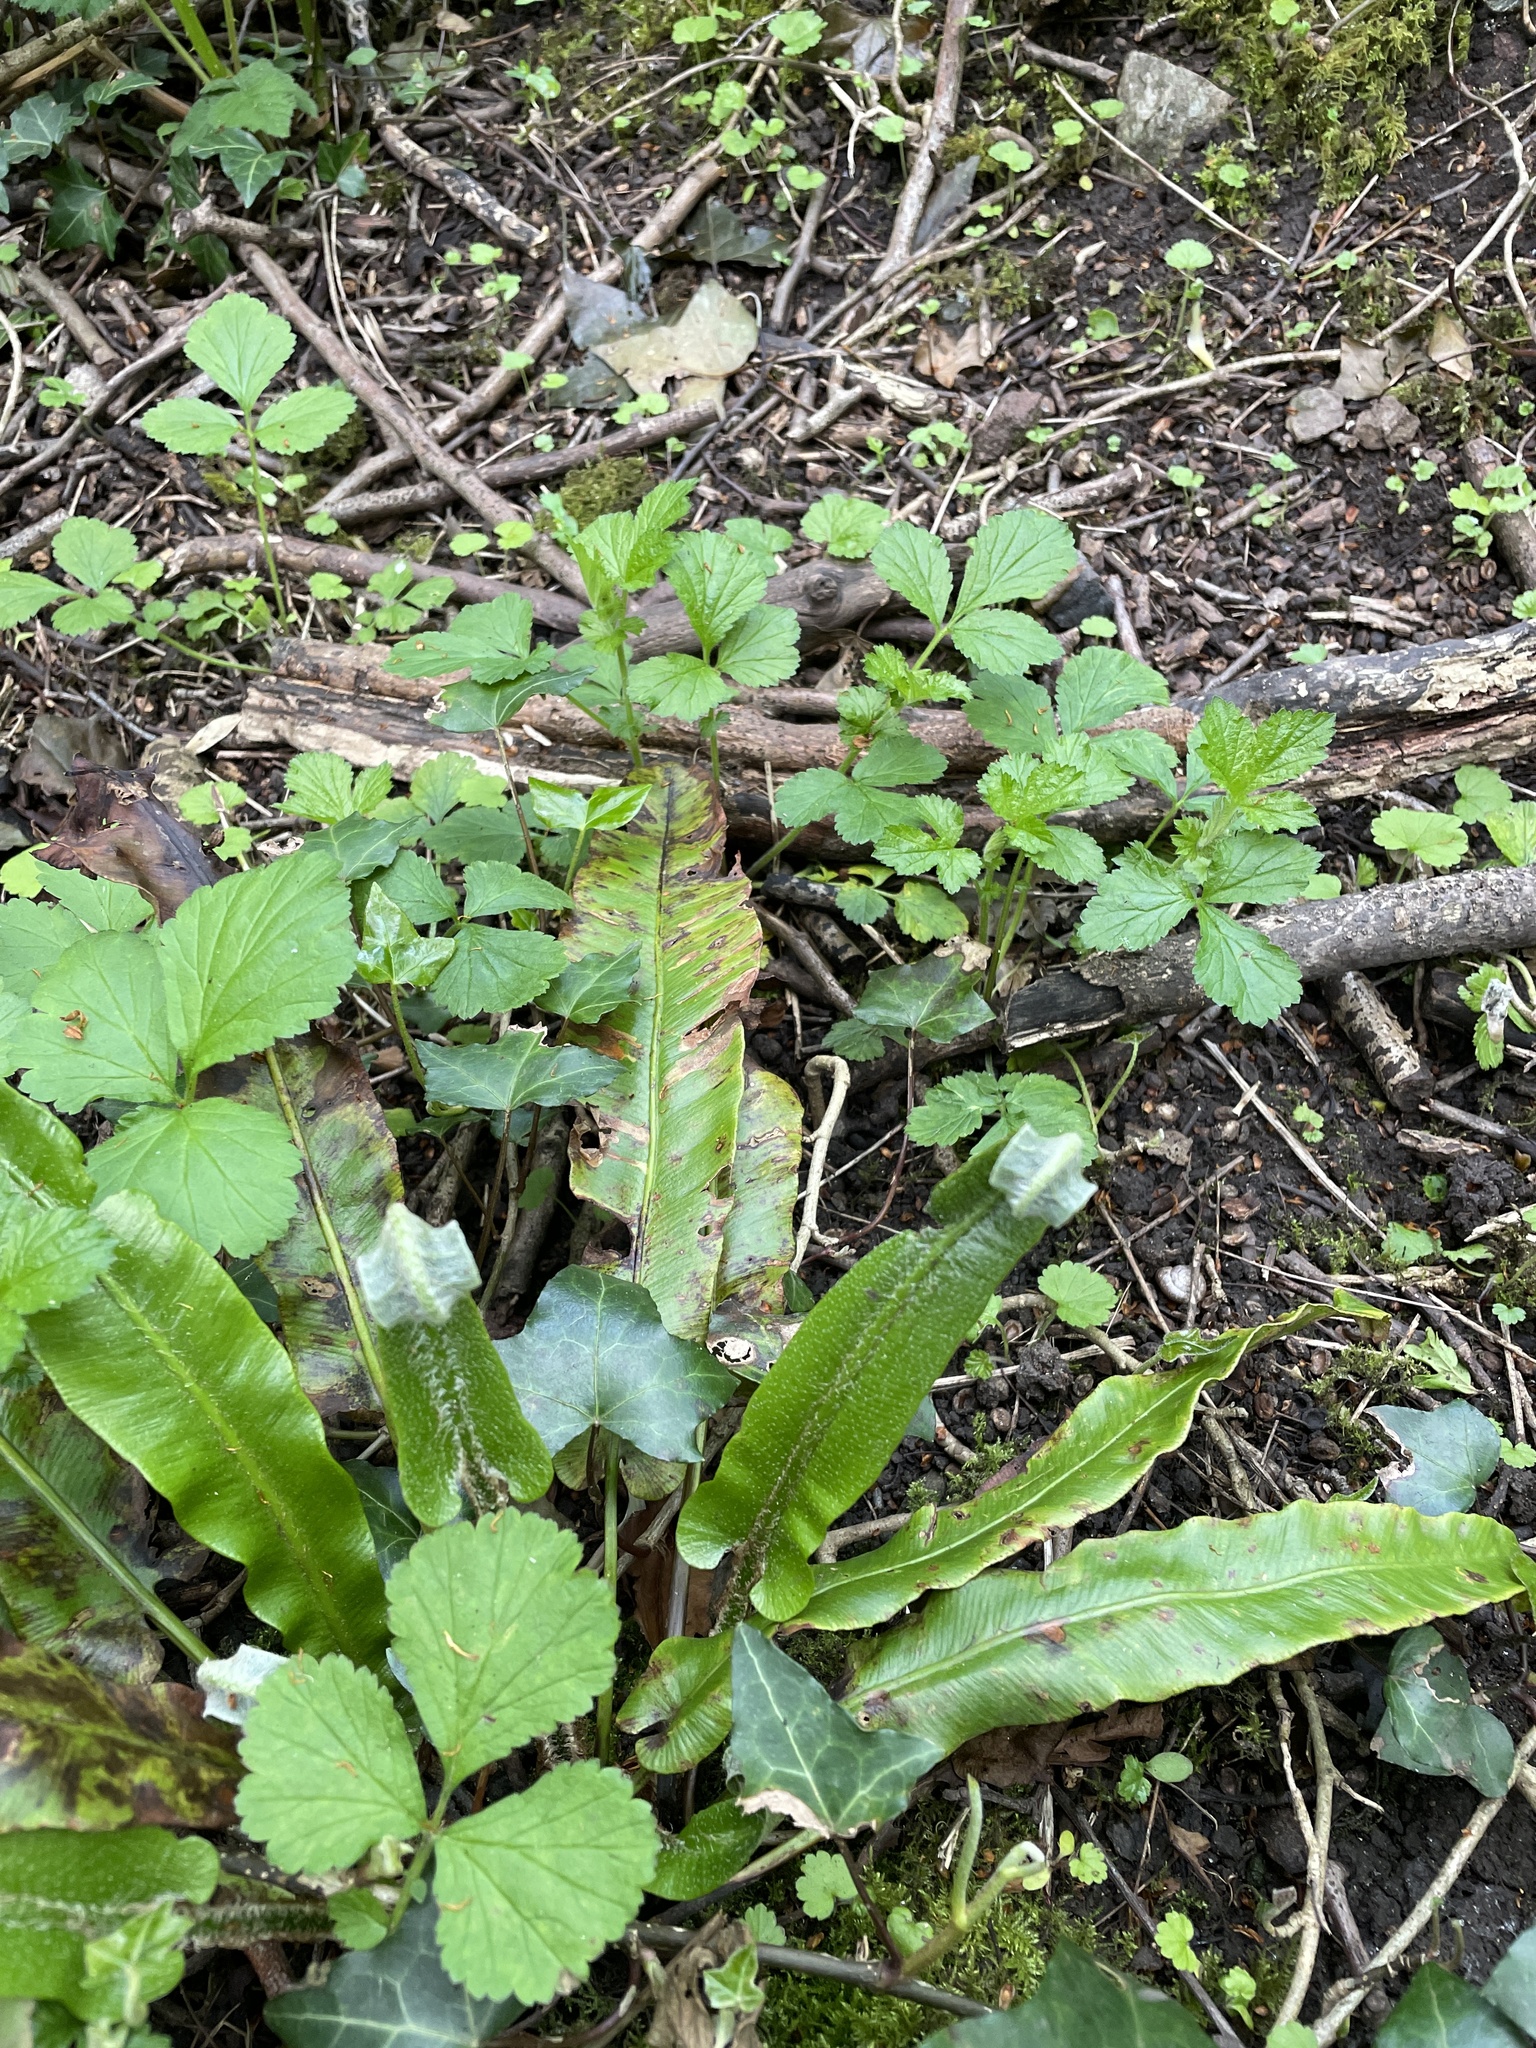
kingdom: Plantae
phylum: Tracheophyta
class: Polypodiopsida
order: Polypodiales
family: Aspleniaceae
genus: Asplenium
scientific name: Asplenium scolopendrium
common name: Hart's-tongue fern
